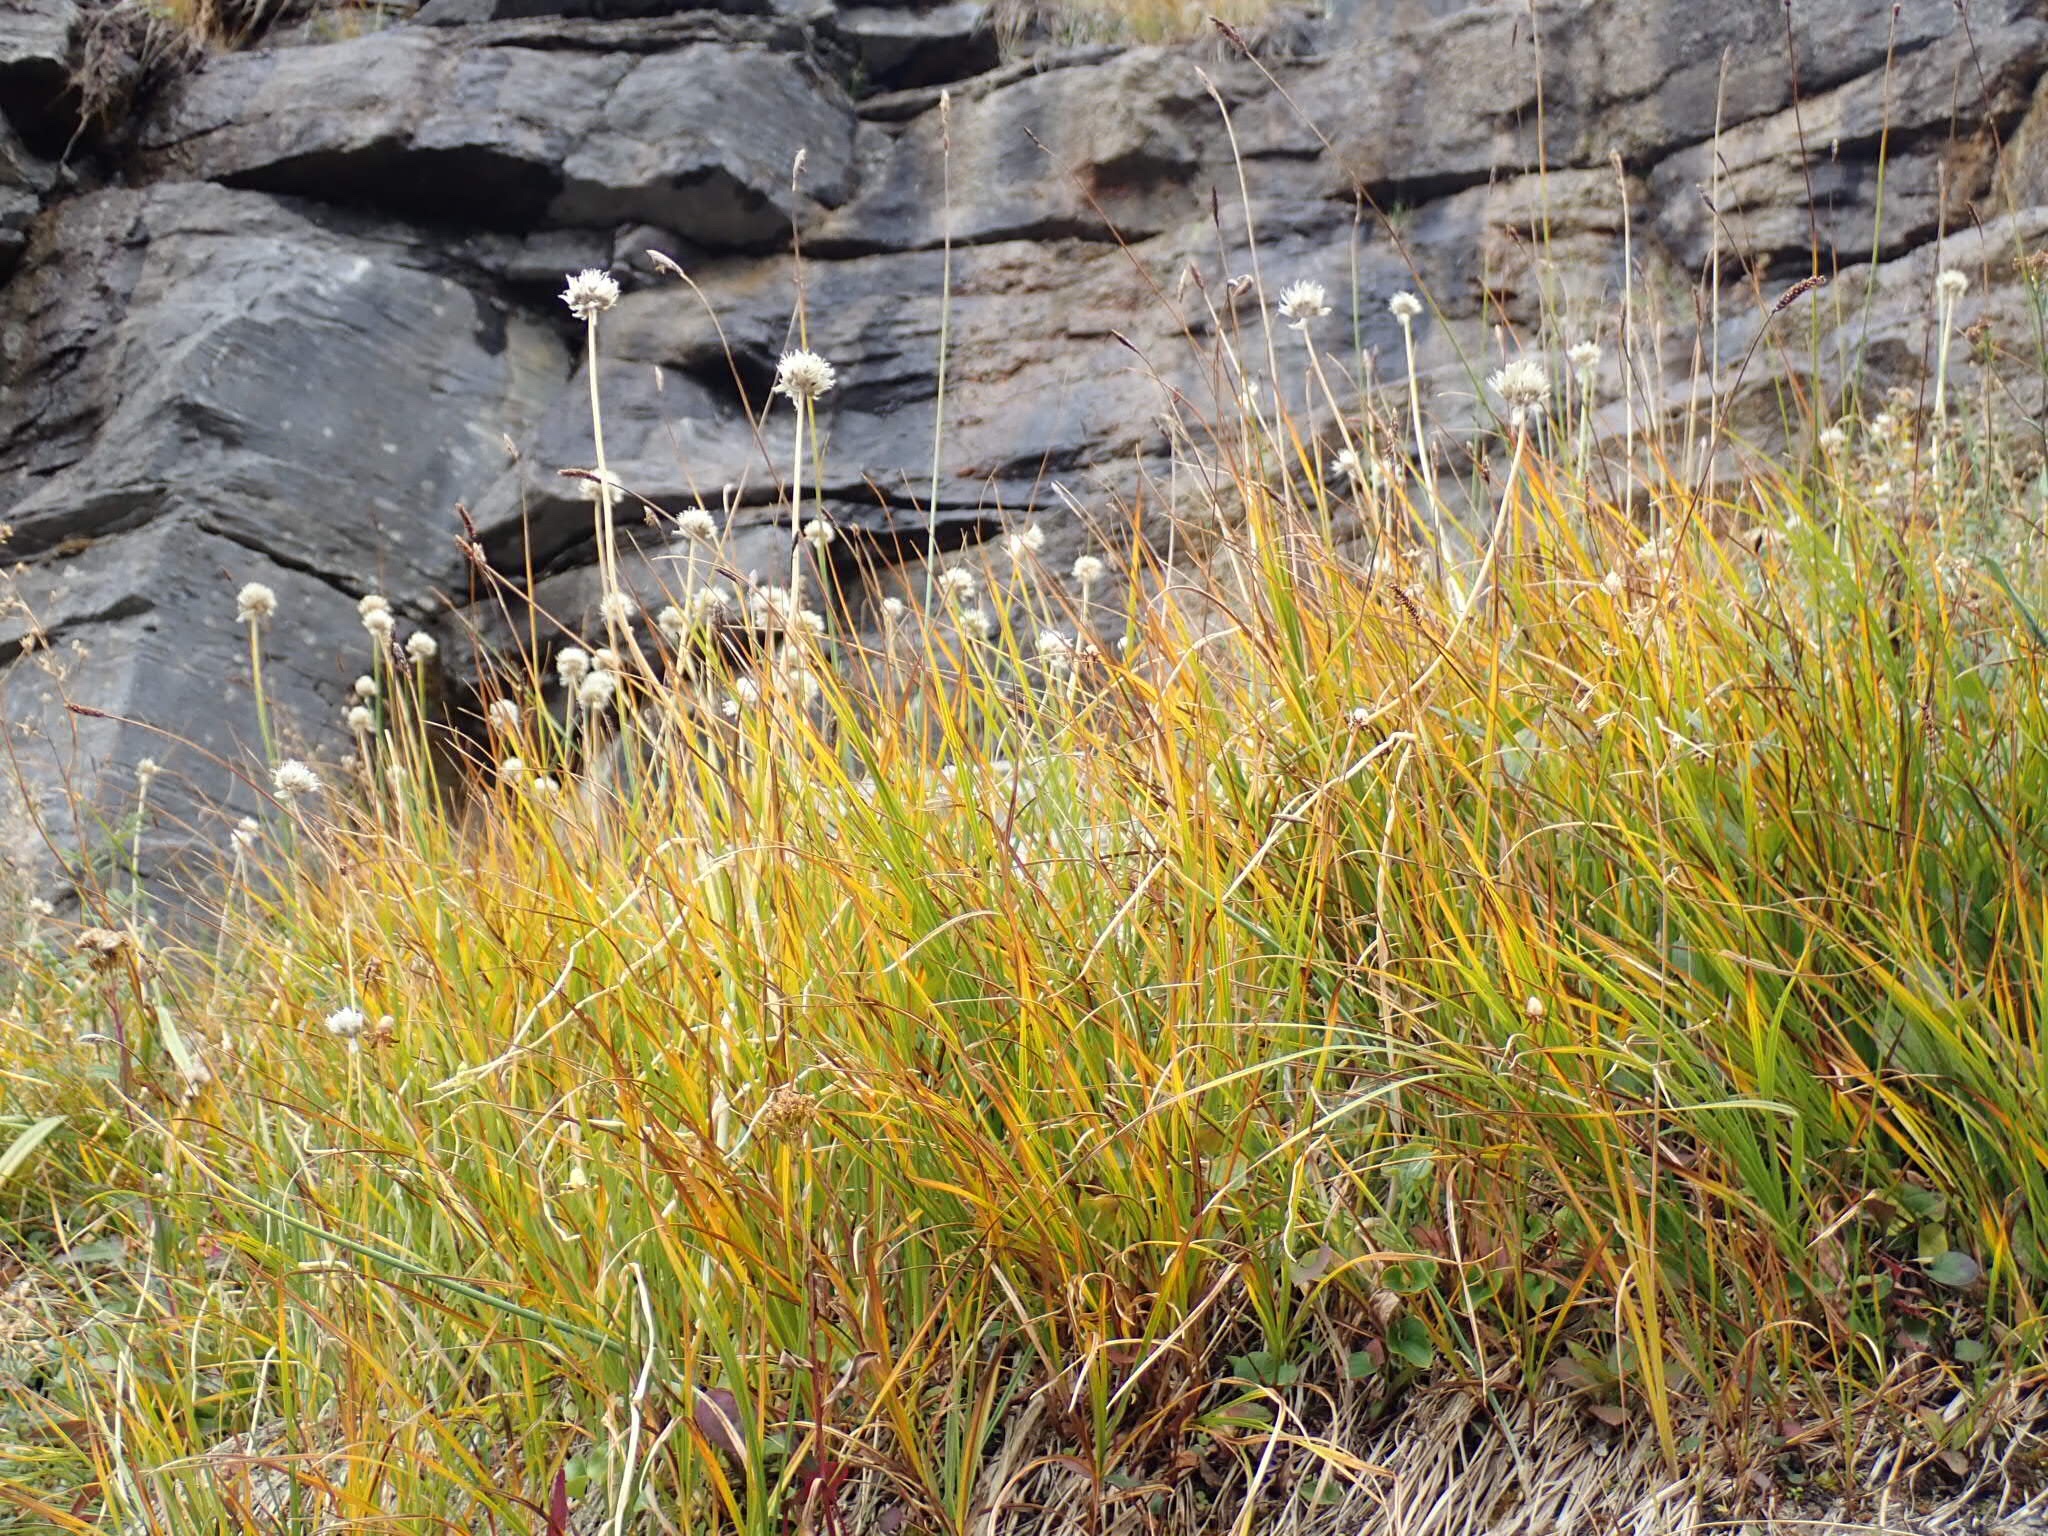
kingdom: Plantae
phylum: Tracheophyta
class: Liliopsida
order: Asparagales
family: Amaryllidaceae
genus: Allium
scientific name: Allium schoenoprasum
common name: Chives
